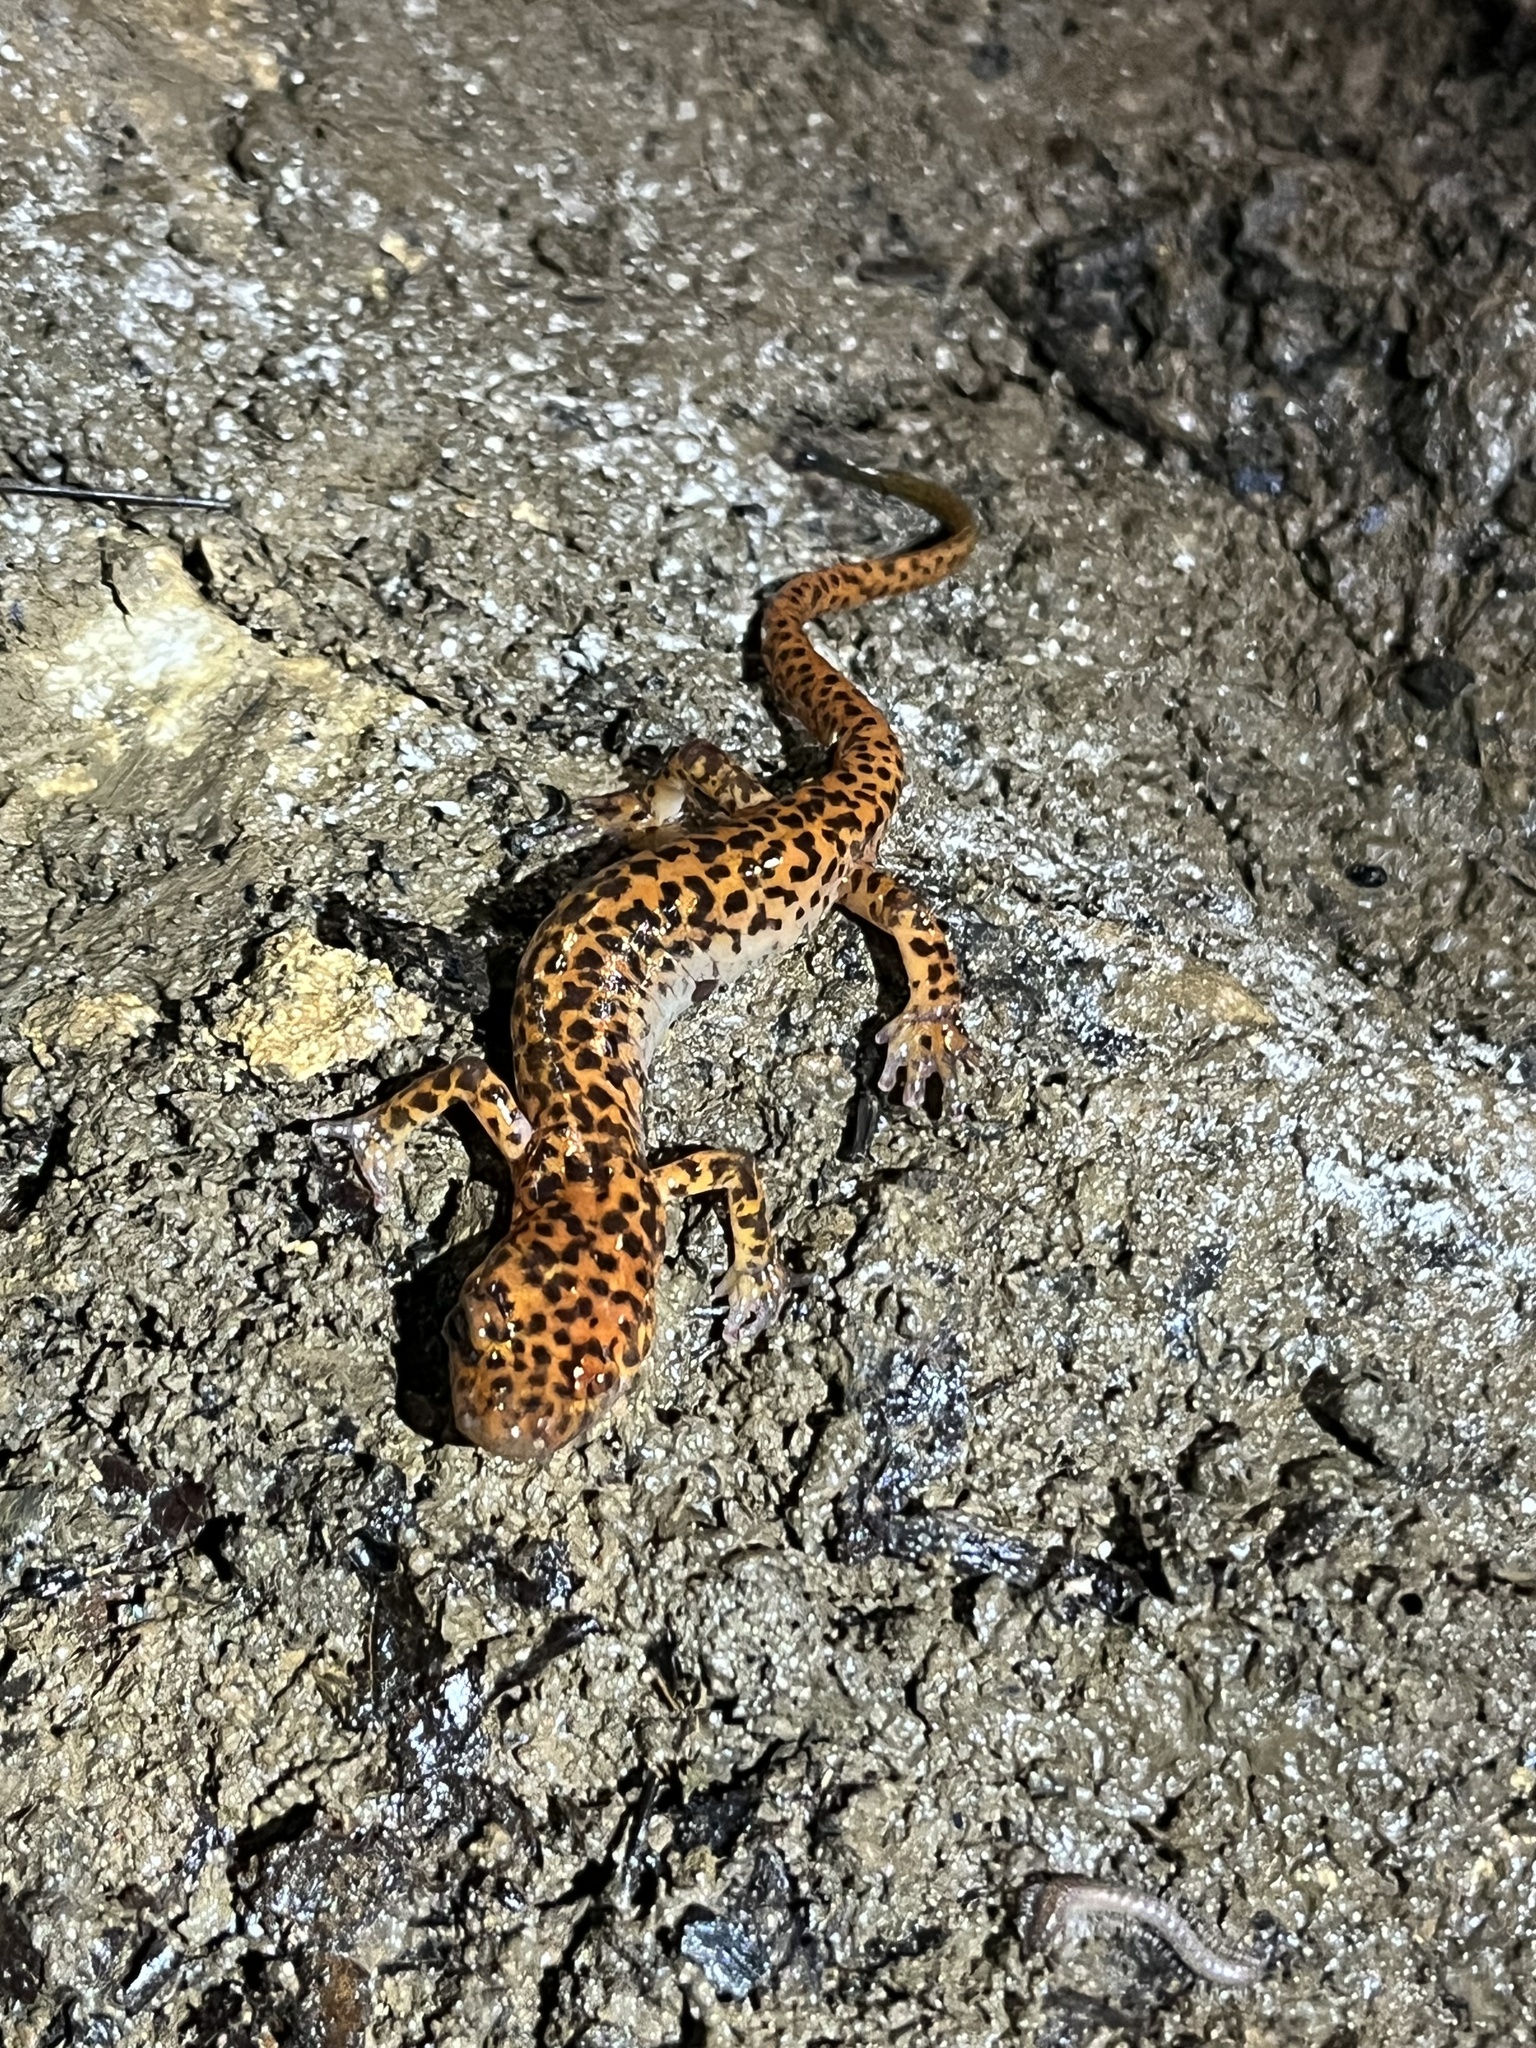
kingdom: Animalia
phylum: Chordata
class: Amphibia
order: Caudata
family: Plethodontidae
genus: Eurycea
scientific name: Eurycea lucifuga
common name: Cave salamander
